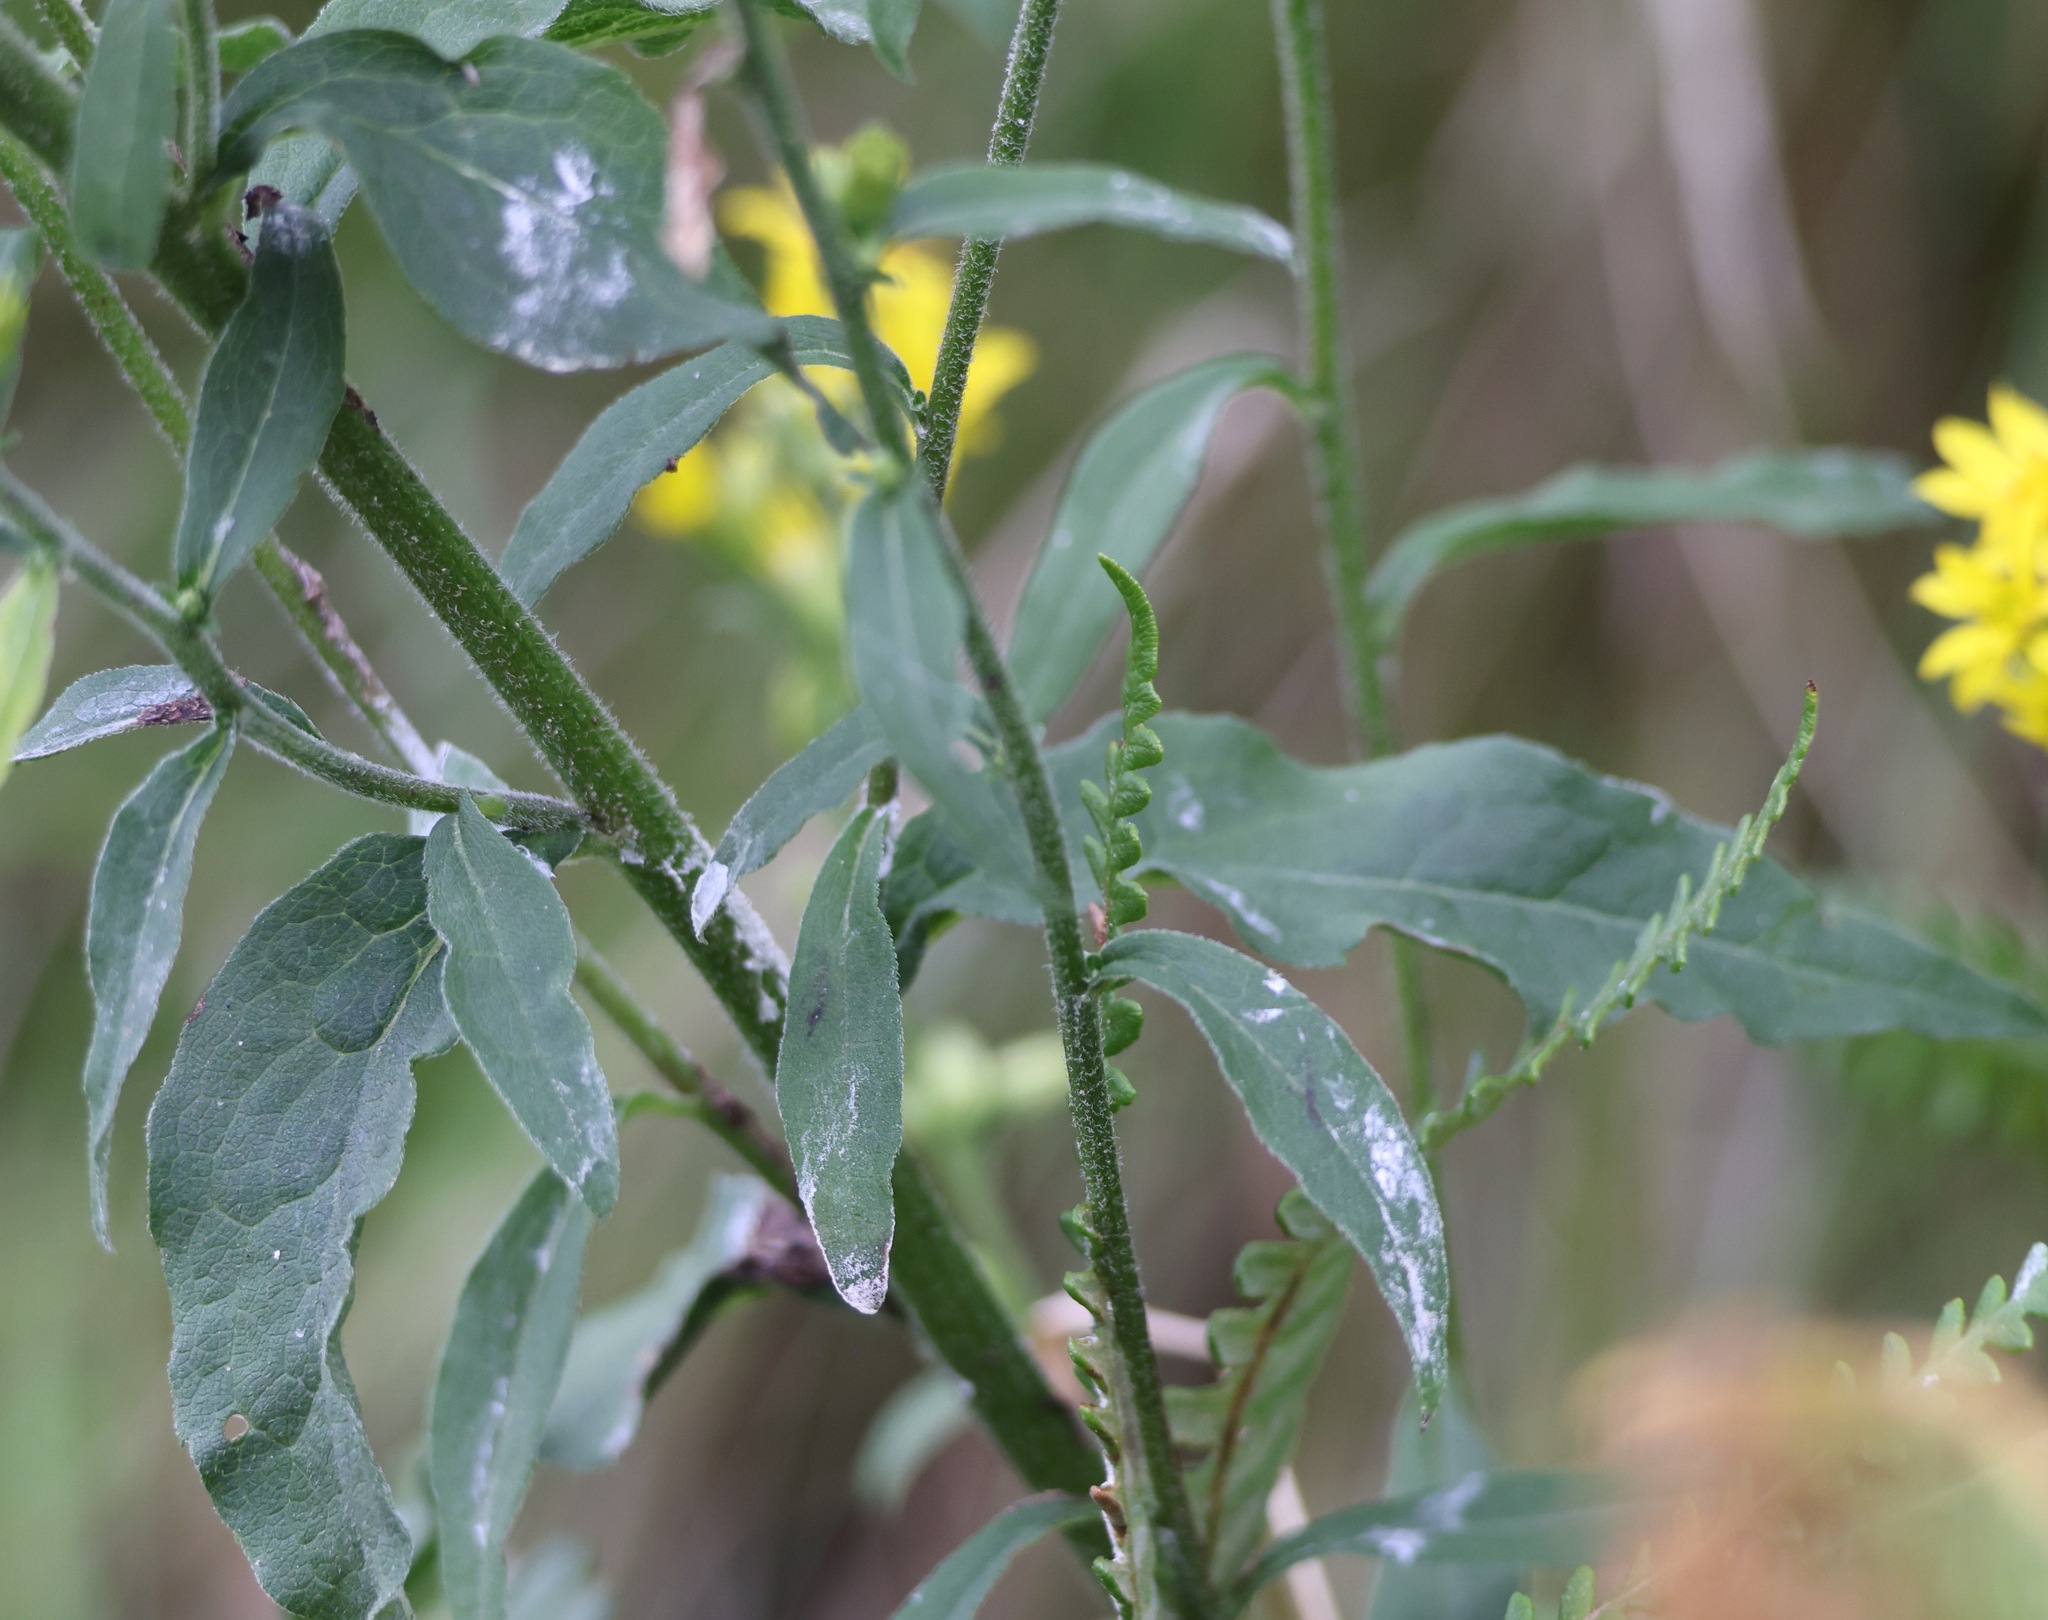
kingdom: Plantae
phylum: Tracheophyta
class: Magnoliopsida
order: Asterales
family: Asteraceae
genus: Solidago
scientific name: Solidago virgaurea
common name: Goldenrod
